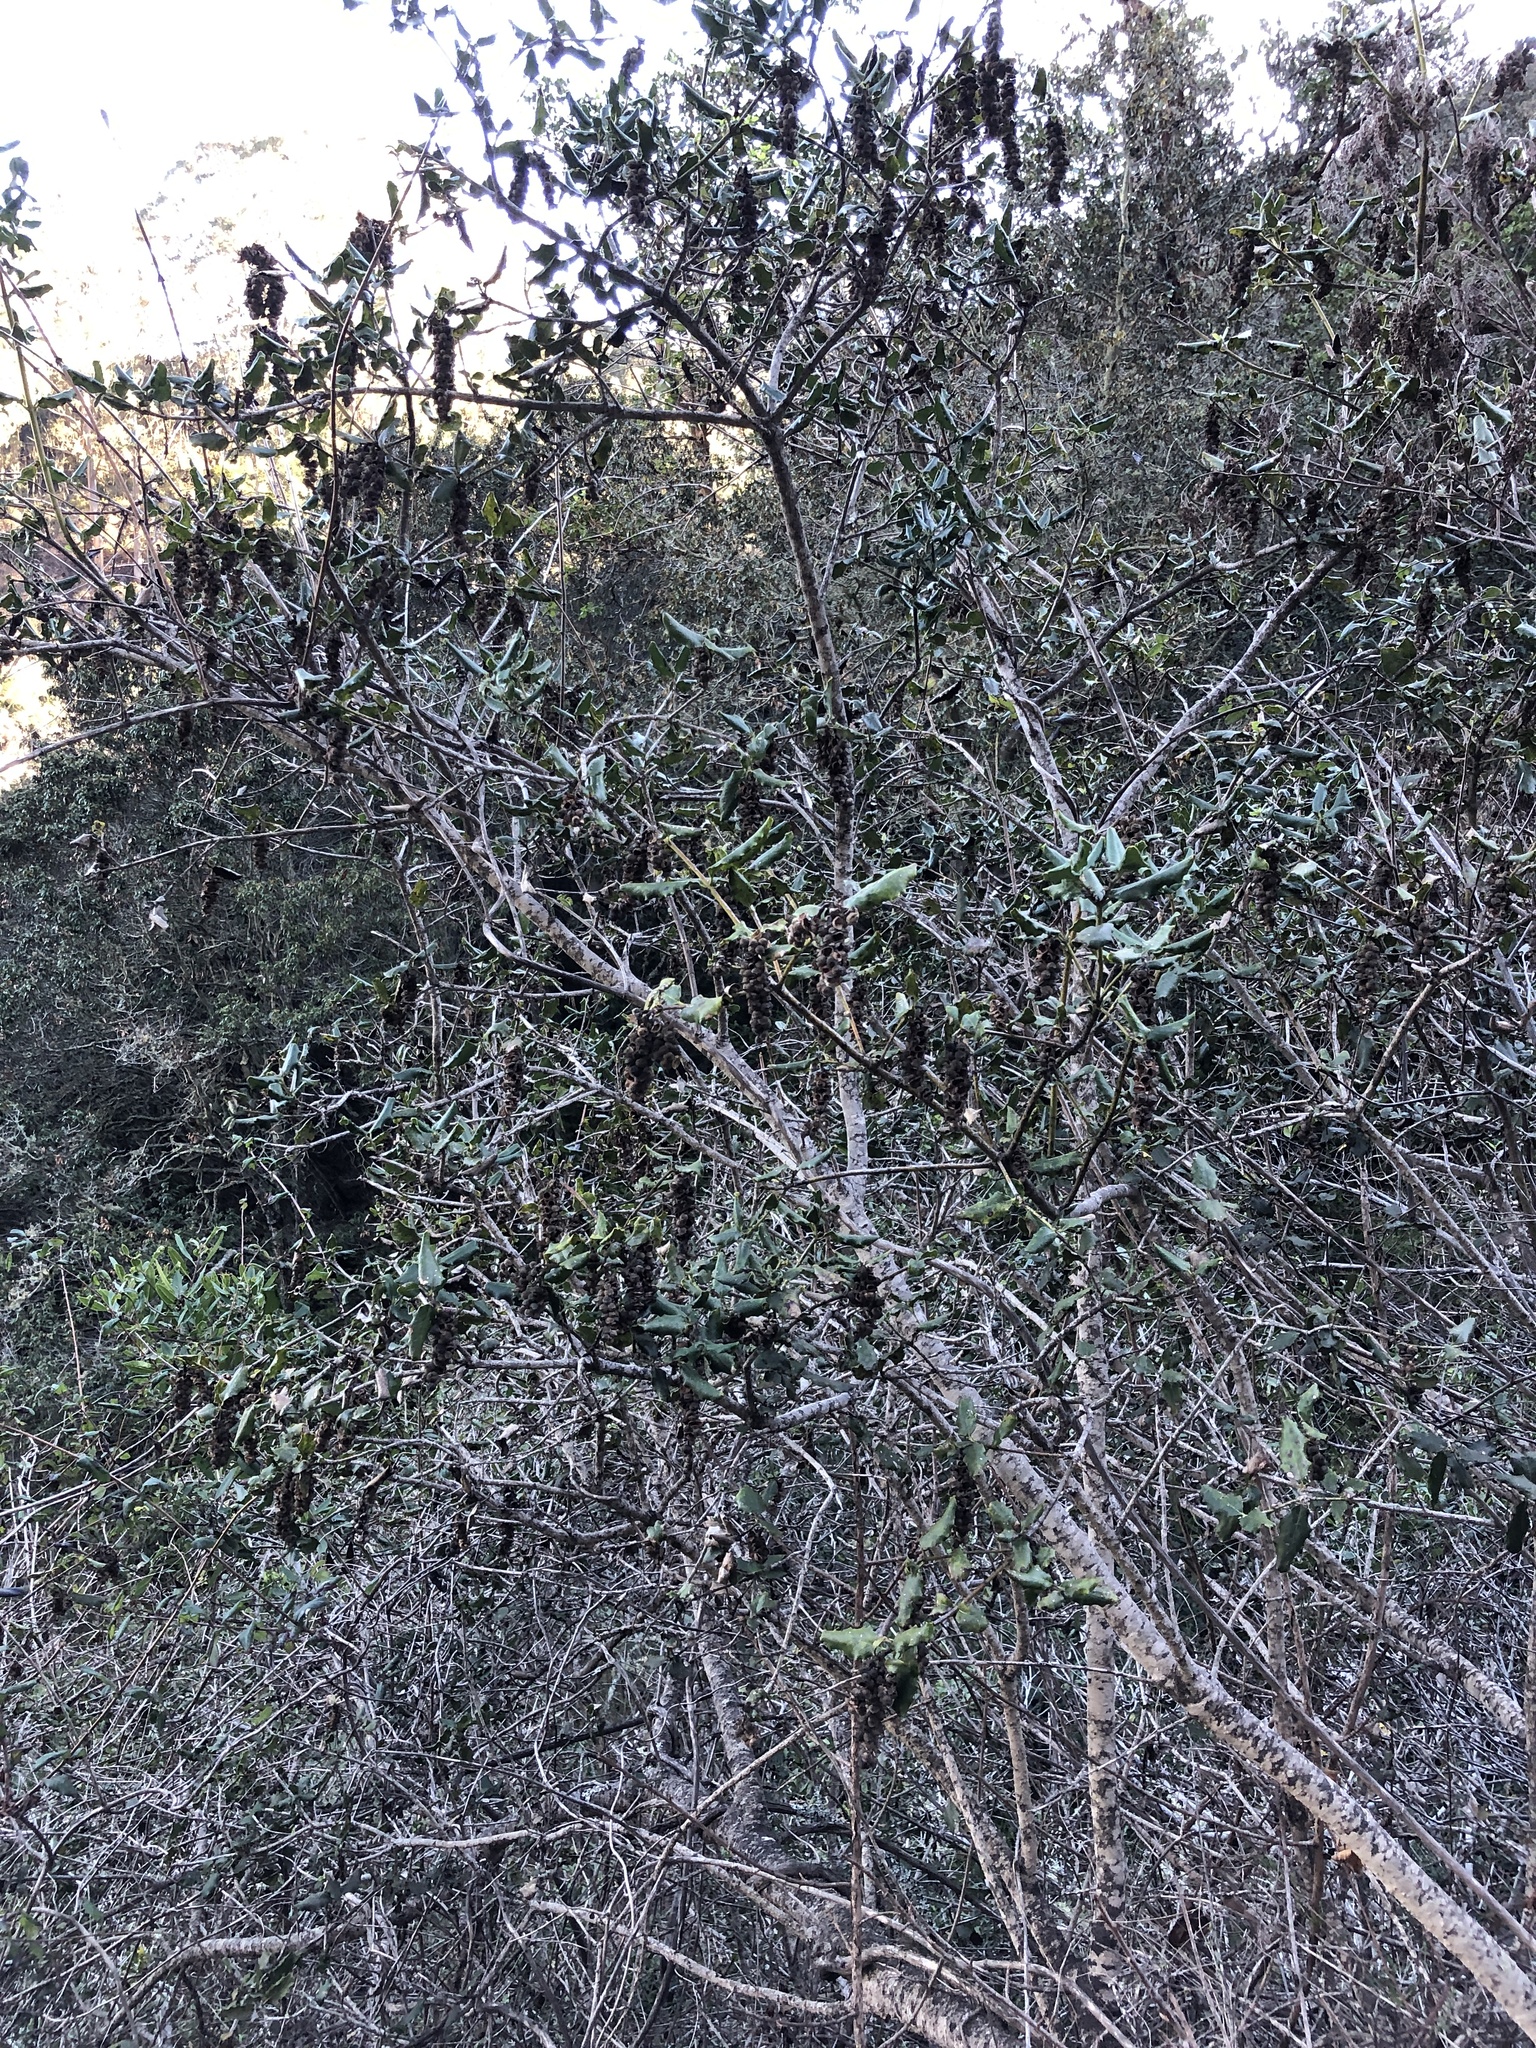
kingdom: Plantae
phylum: Tracheophyta
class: Magnoliopsida
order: Garryales
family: Garryaceae
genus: Garrya
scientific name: Garrya elliptica
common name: Silk-tassel
